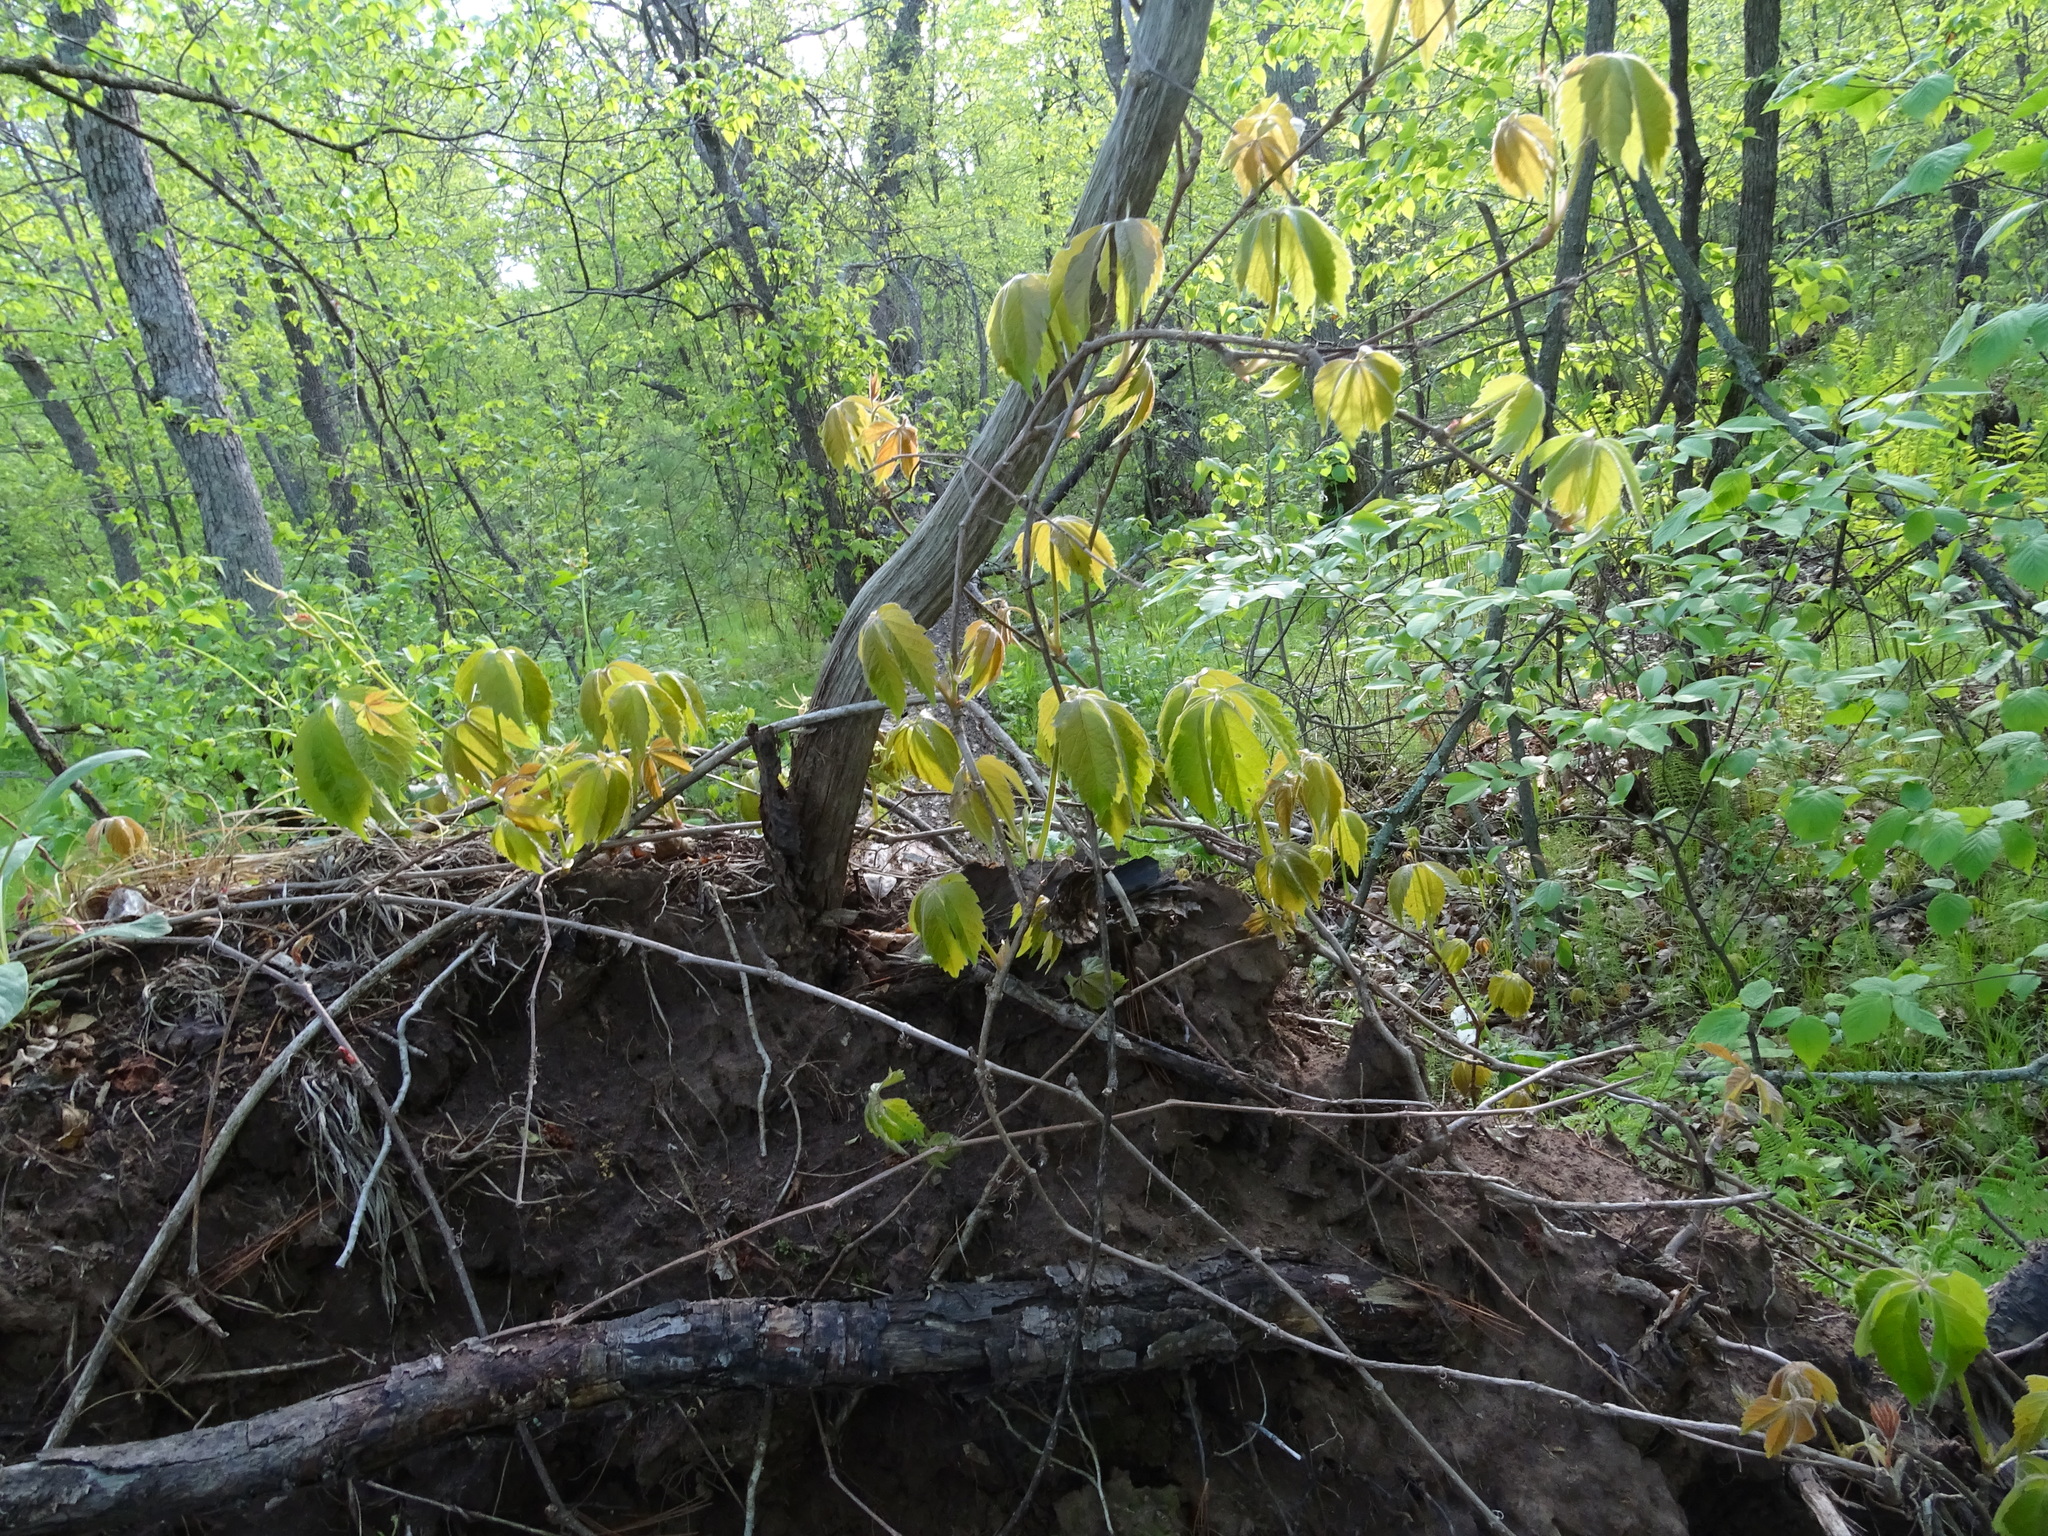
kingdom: Plantae
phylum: Tracheophyta
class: Magnoliopsida
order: Vitales
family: Vitaceae
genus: Parthenocissus
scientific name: Parthenocissus quinquefolia
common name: Virginia-creeper
